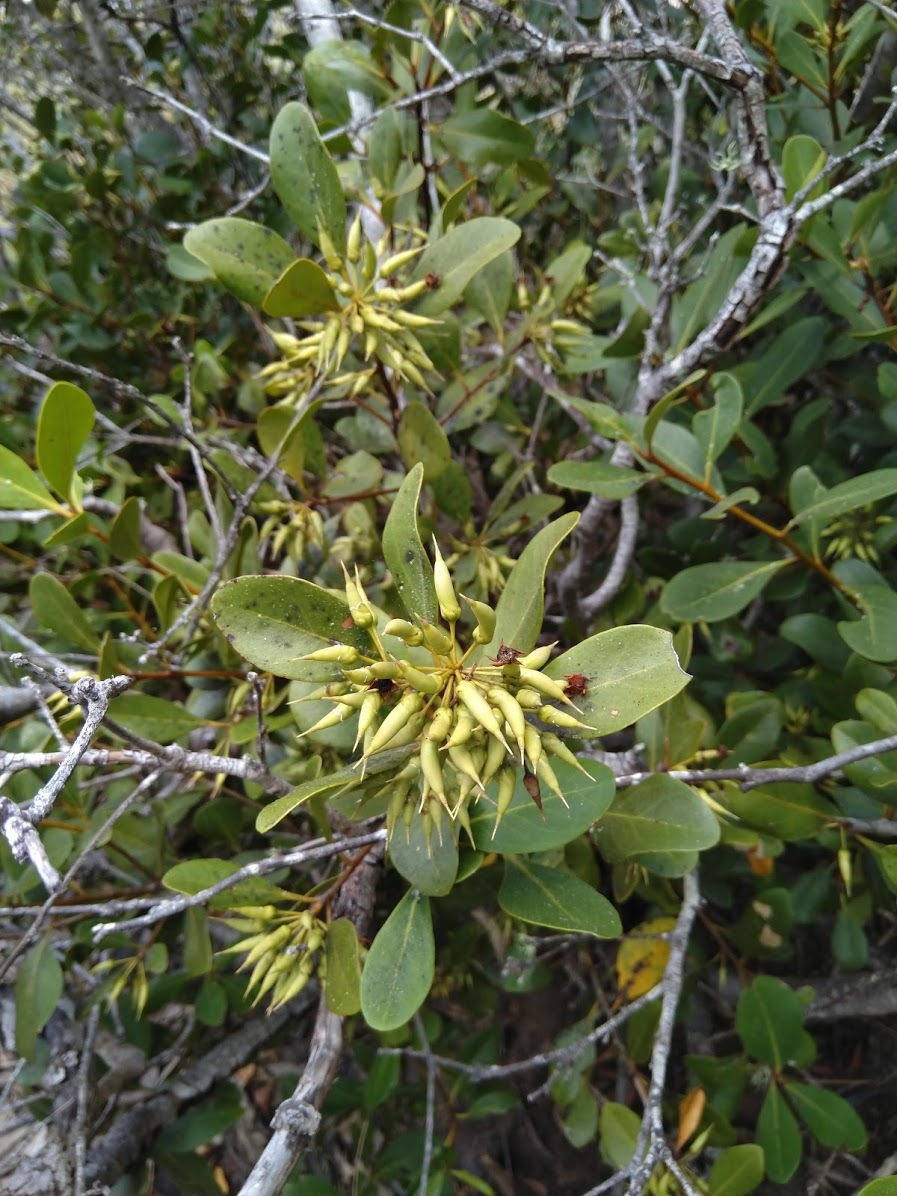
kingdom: Plantae
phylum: Tracheophyta
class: Magnoliopsida
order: Ericales
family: Primulaceae
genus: Aegiceras
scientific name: Aegiceras corniculatum
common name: River mangrove
